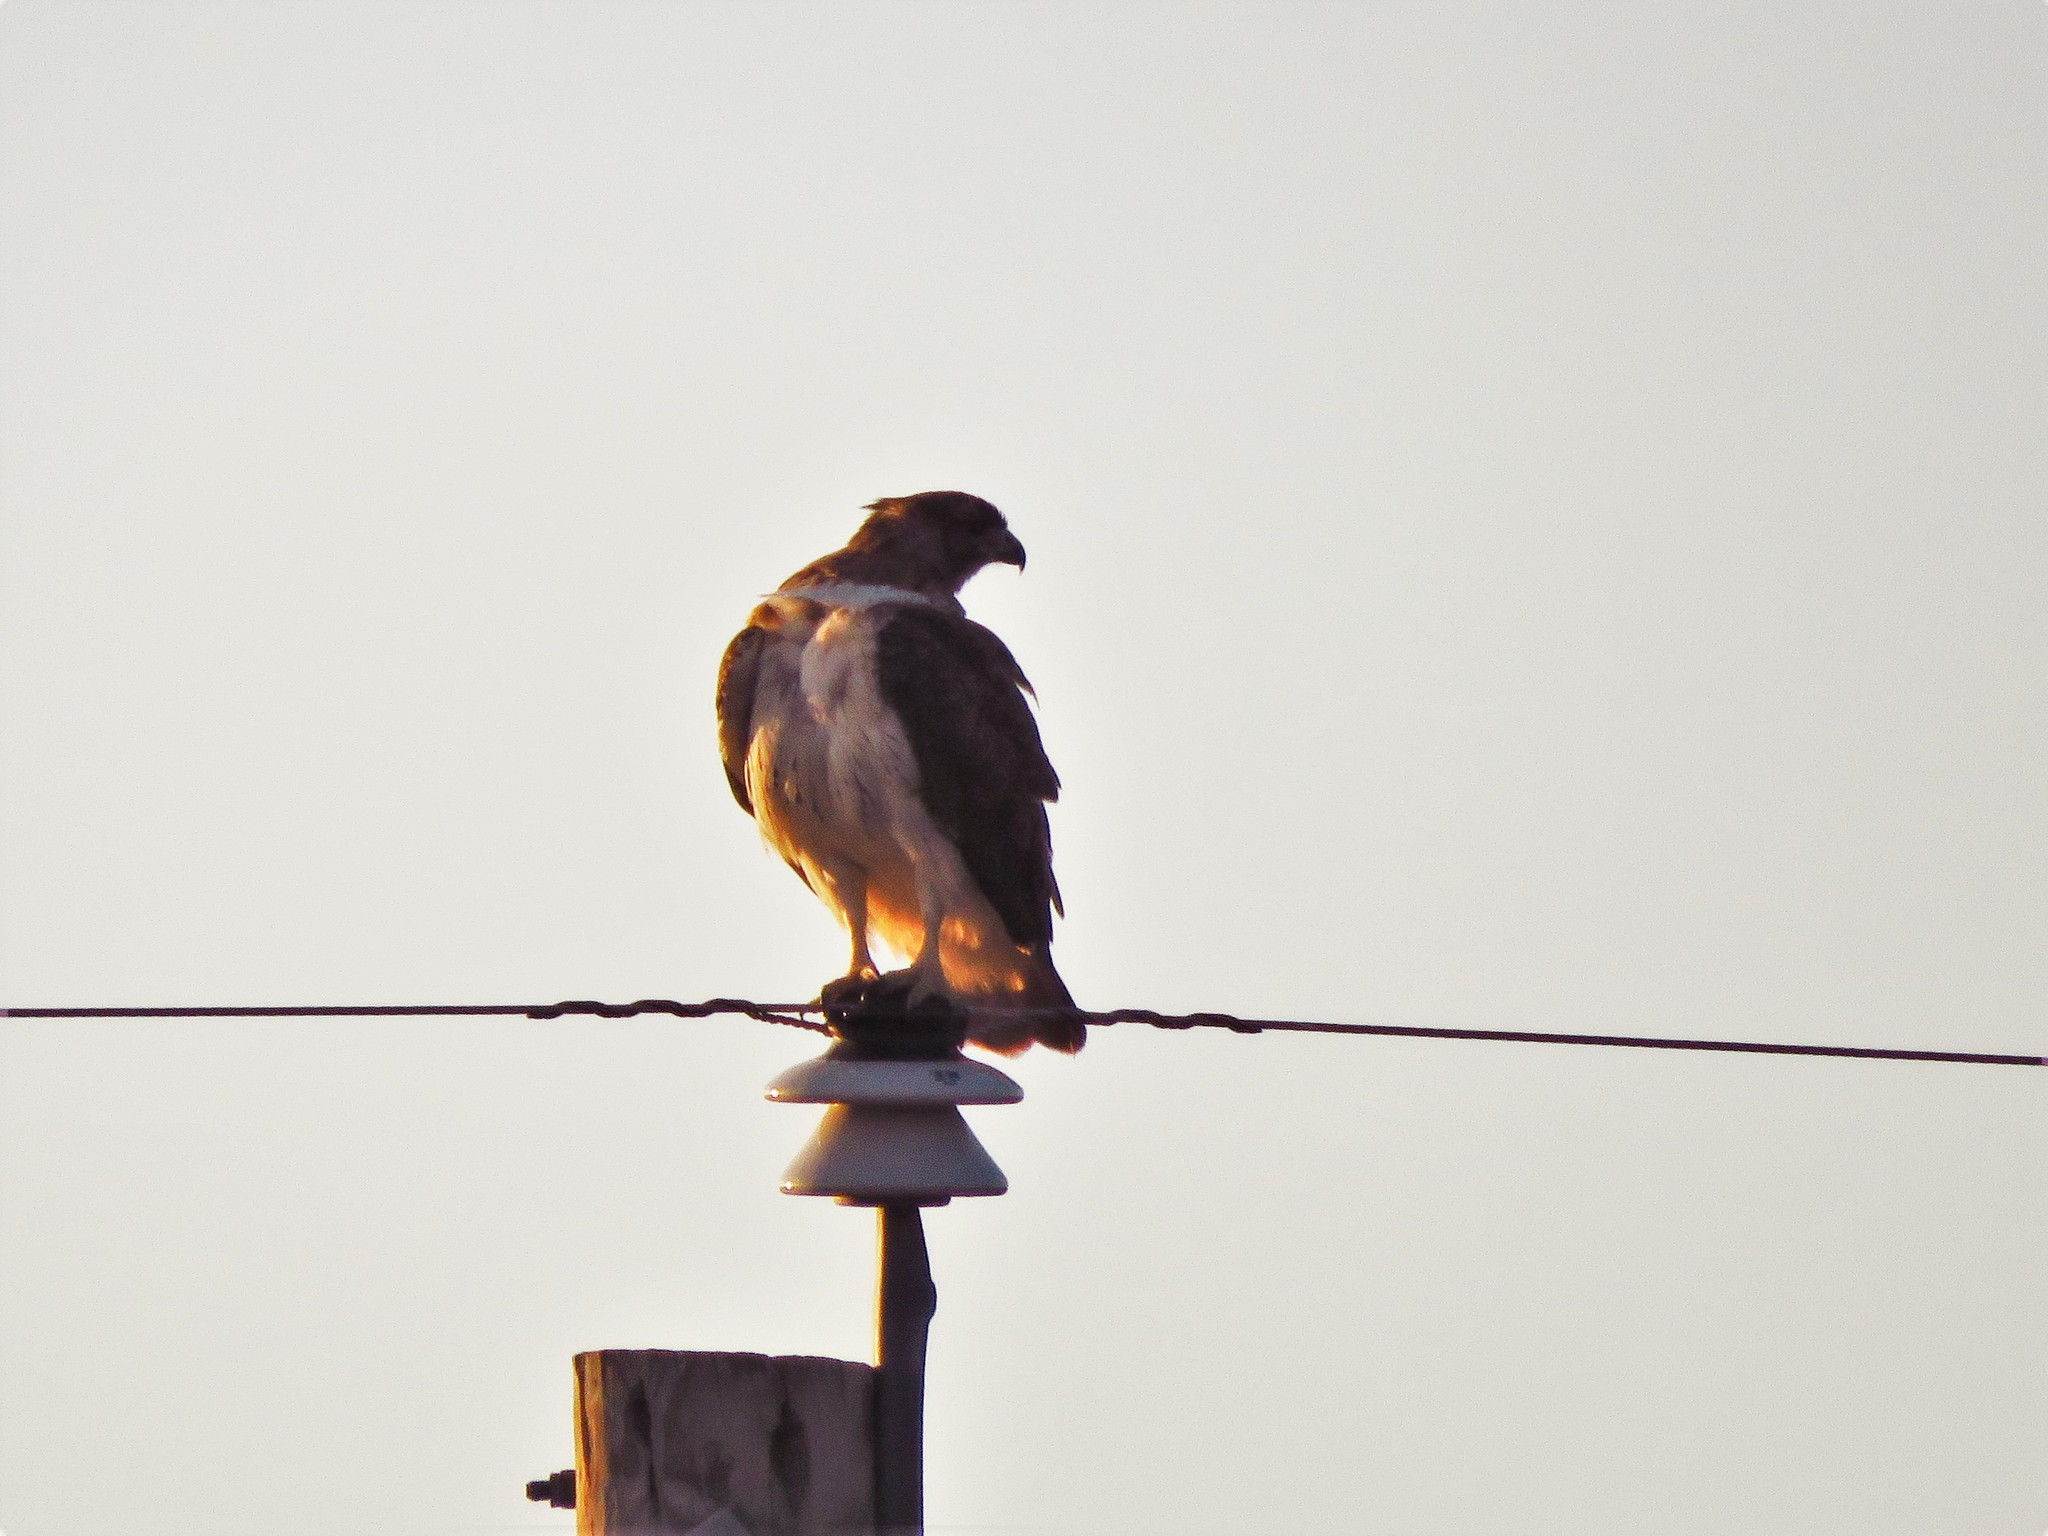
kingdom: Animalia
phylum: Chordata
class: Aves
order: Accipitriformes
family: Accipitridae
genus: Buteo
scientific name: Buteo jamaicensis
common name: Red-tailed hawk
